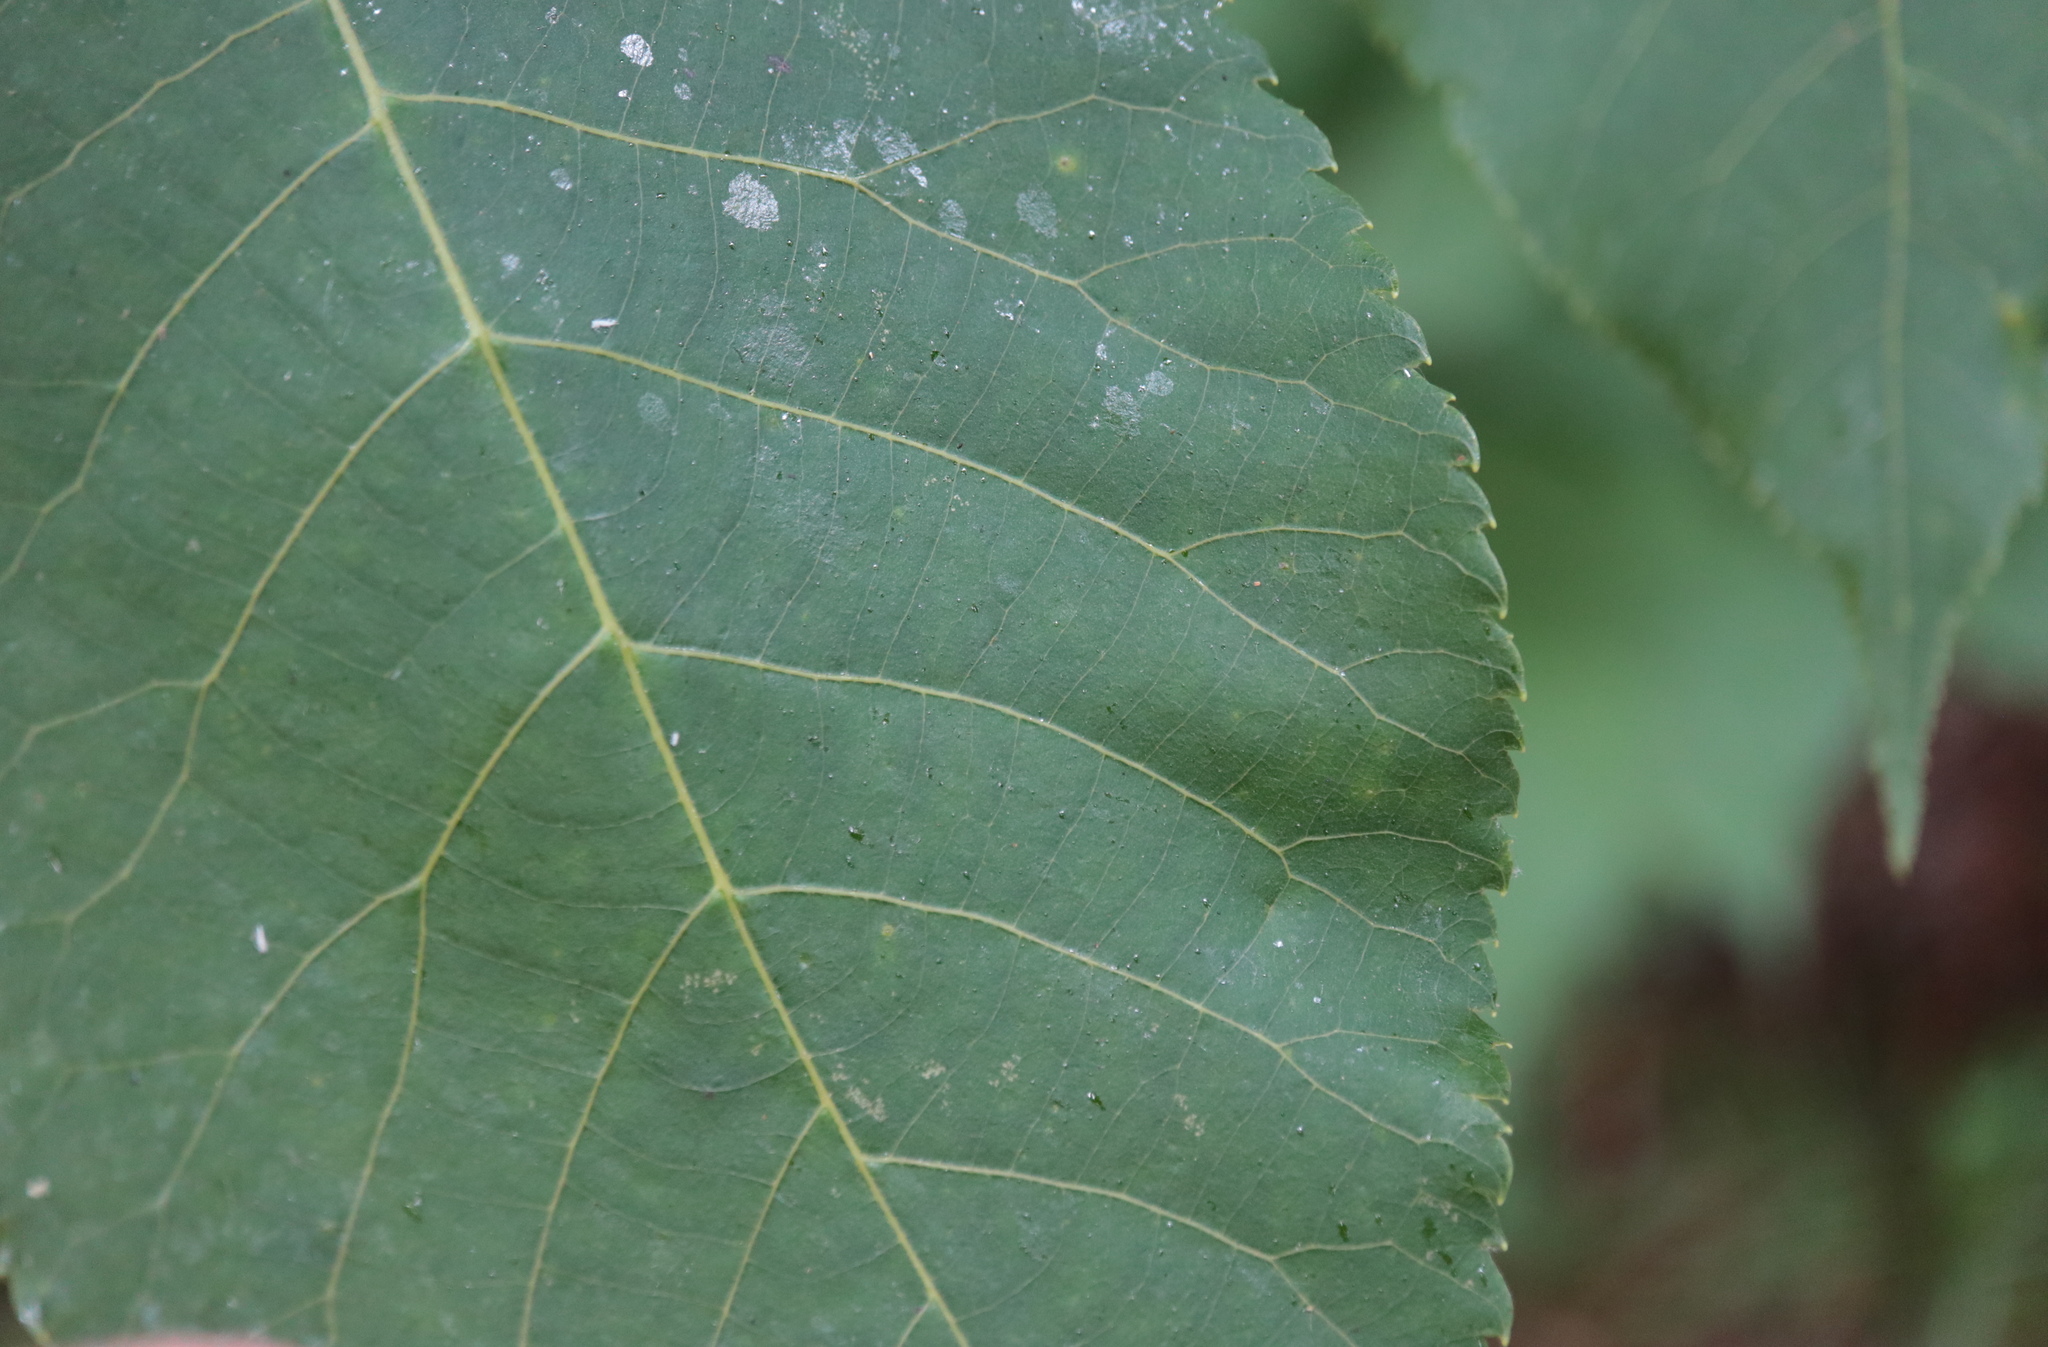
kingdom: Animalia
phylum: Arthropoda
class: Insecta
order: Diptera
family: Cecidomyiidae
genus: Caryomyia
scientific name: Caryomyia urnula
